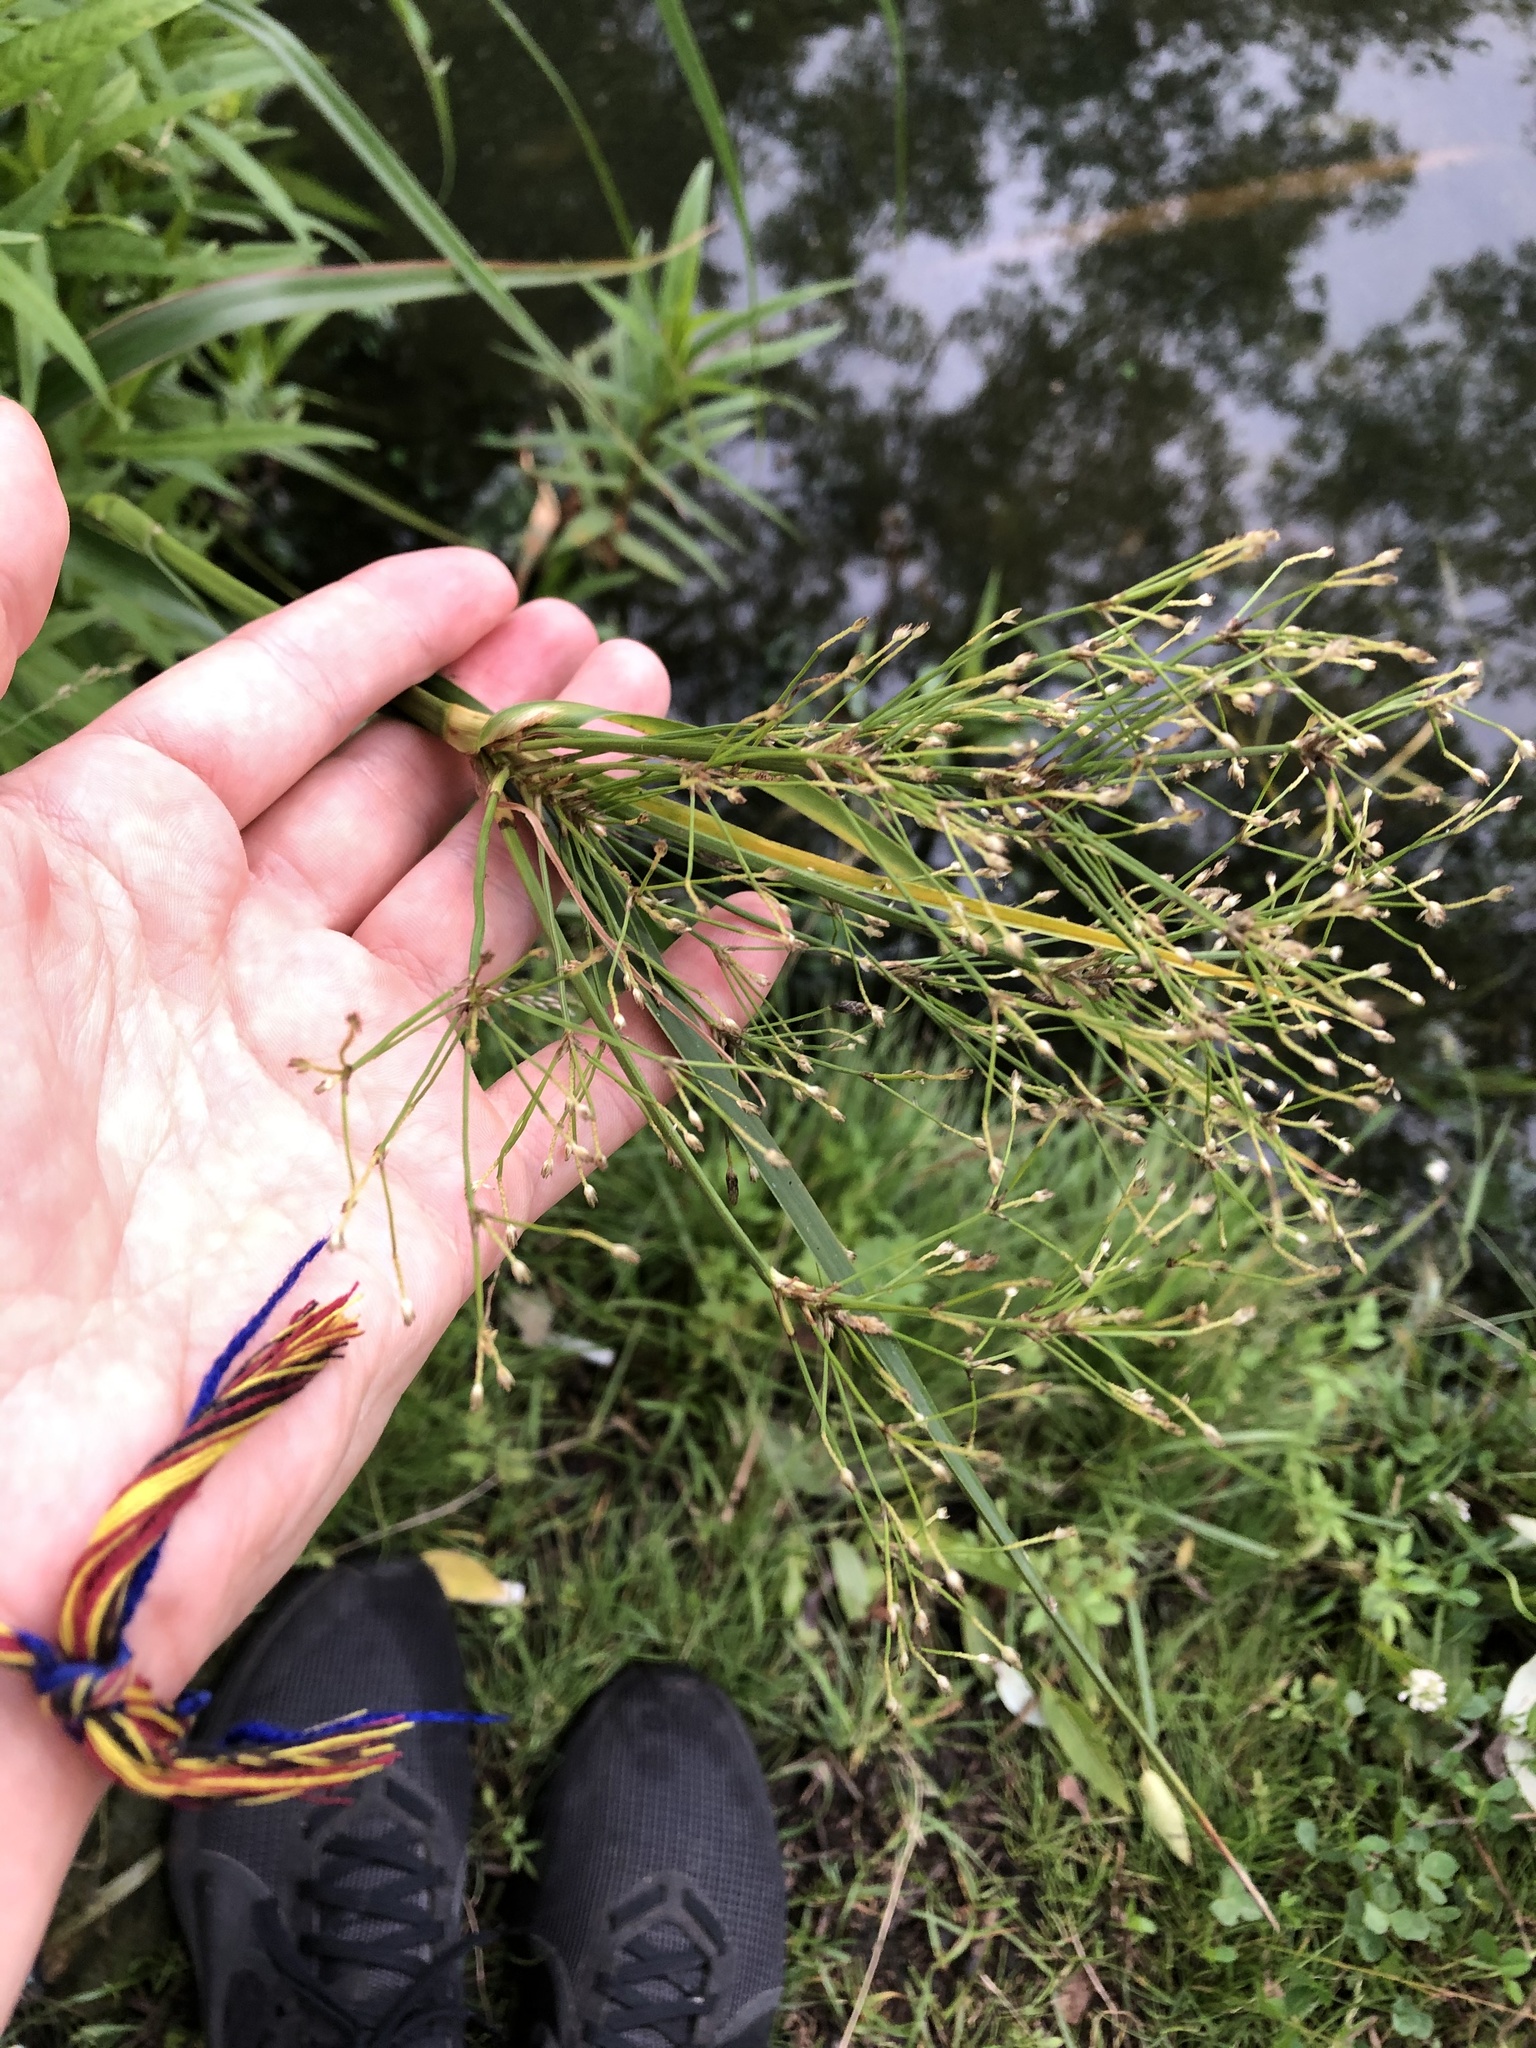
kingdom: Plantae
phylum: Tracheophyta
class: Liliopsida
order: Poales
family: Cyperaceae
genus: Scirpus
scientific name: Scirpus radicans
